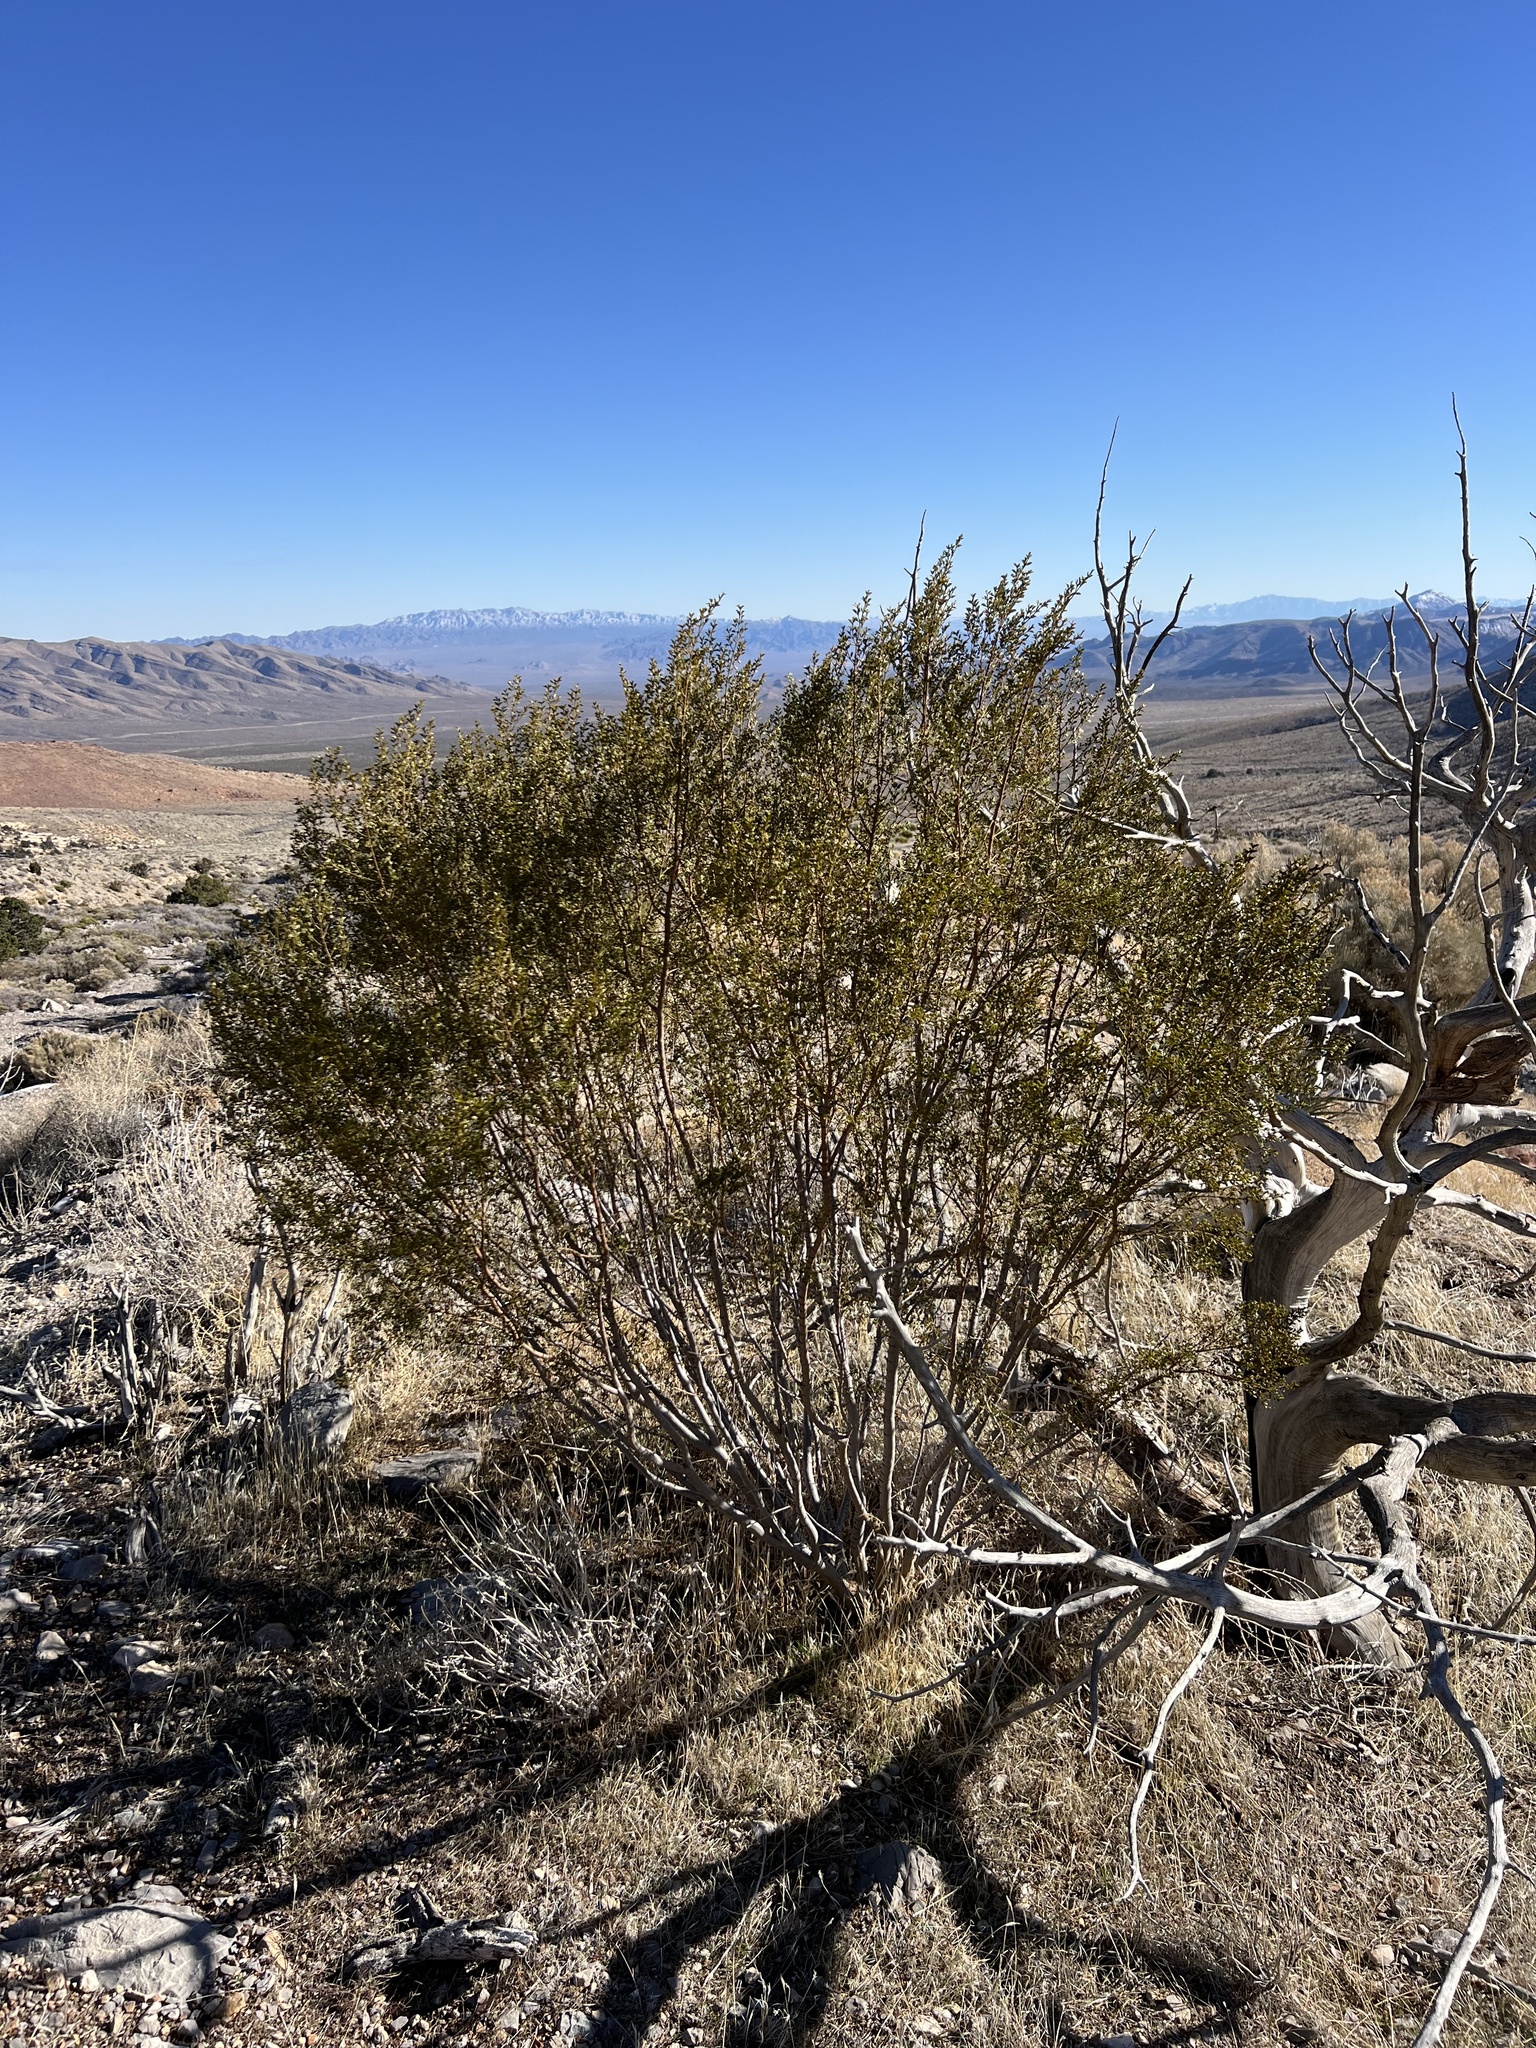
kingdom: Plantae
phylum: Tracheophyta
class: Magnoliopsida
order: Zygophyllales
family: Zygophyllaceae
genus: Larrea
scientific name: Larrea tridentata
